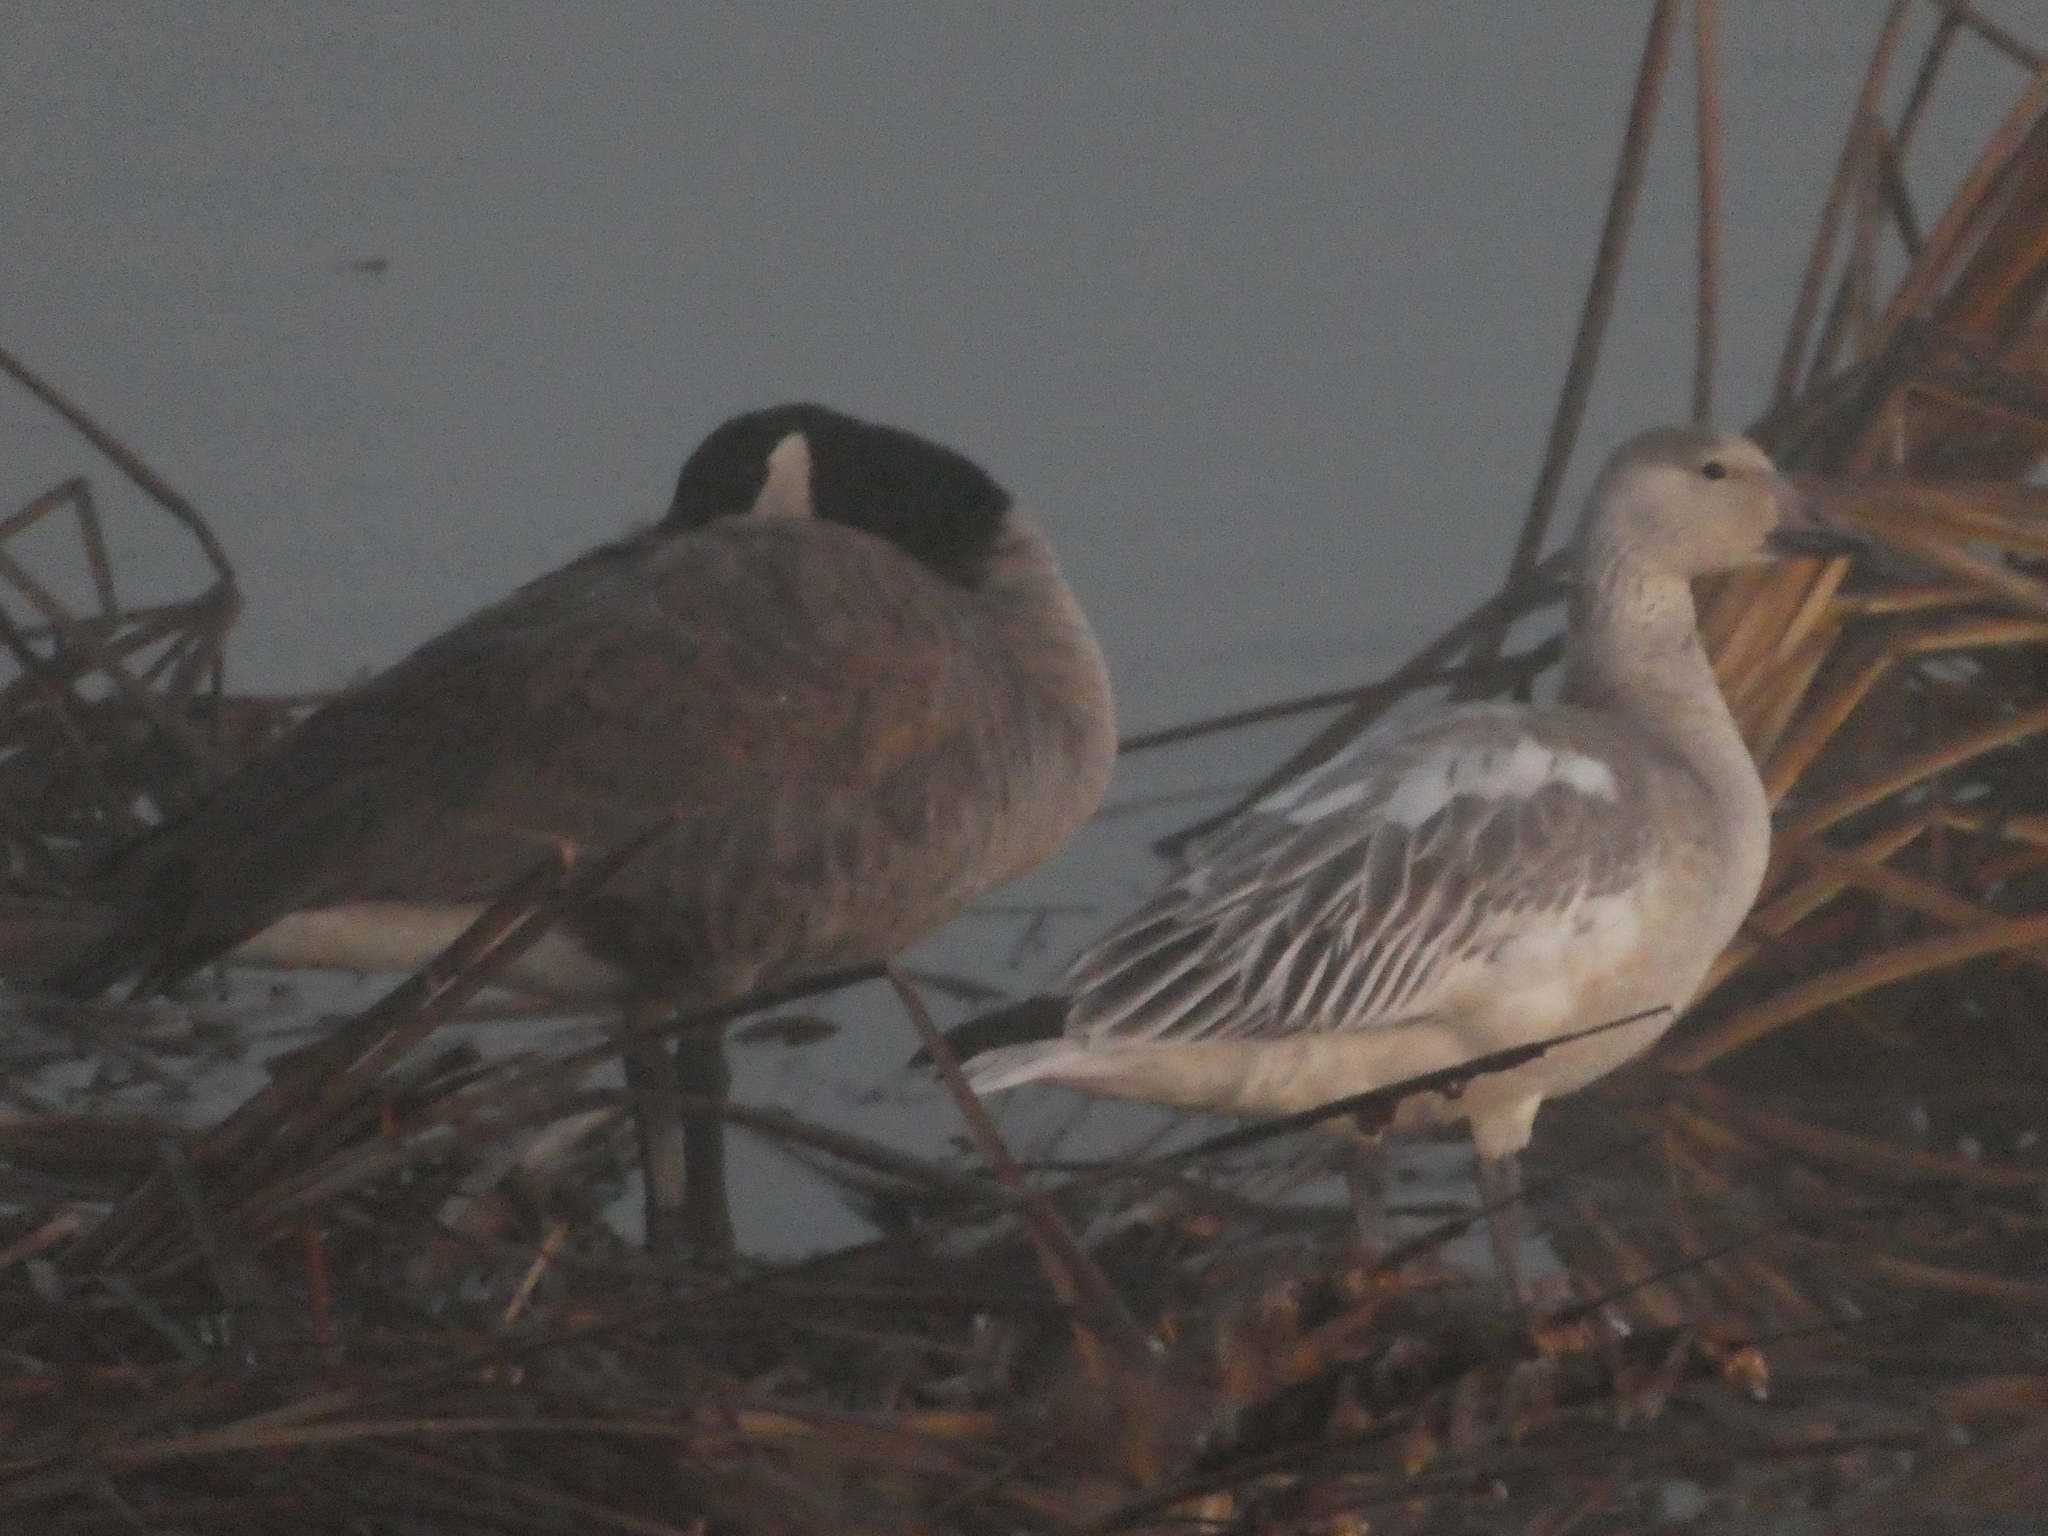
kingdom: Animalia
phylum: Chordata
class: Aves
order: Anseriformes
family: Anatidae
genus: Anser
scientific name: Anser caerulescens
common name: Snow goose
